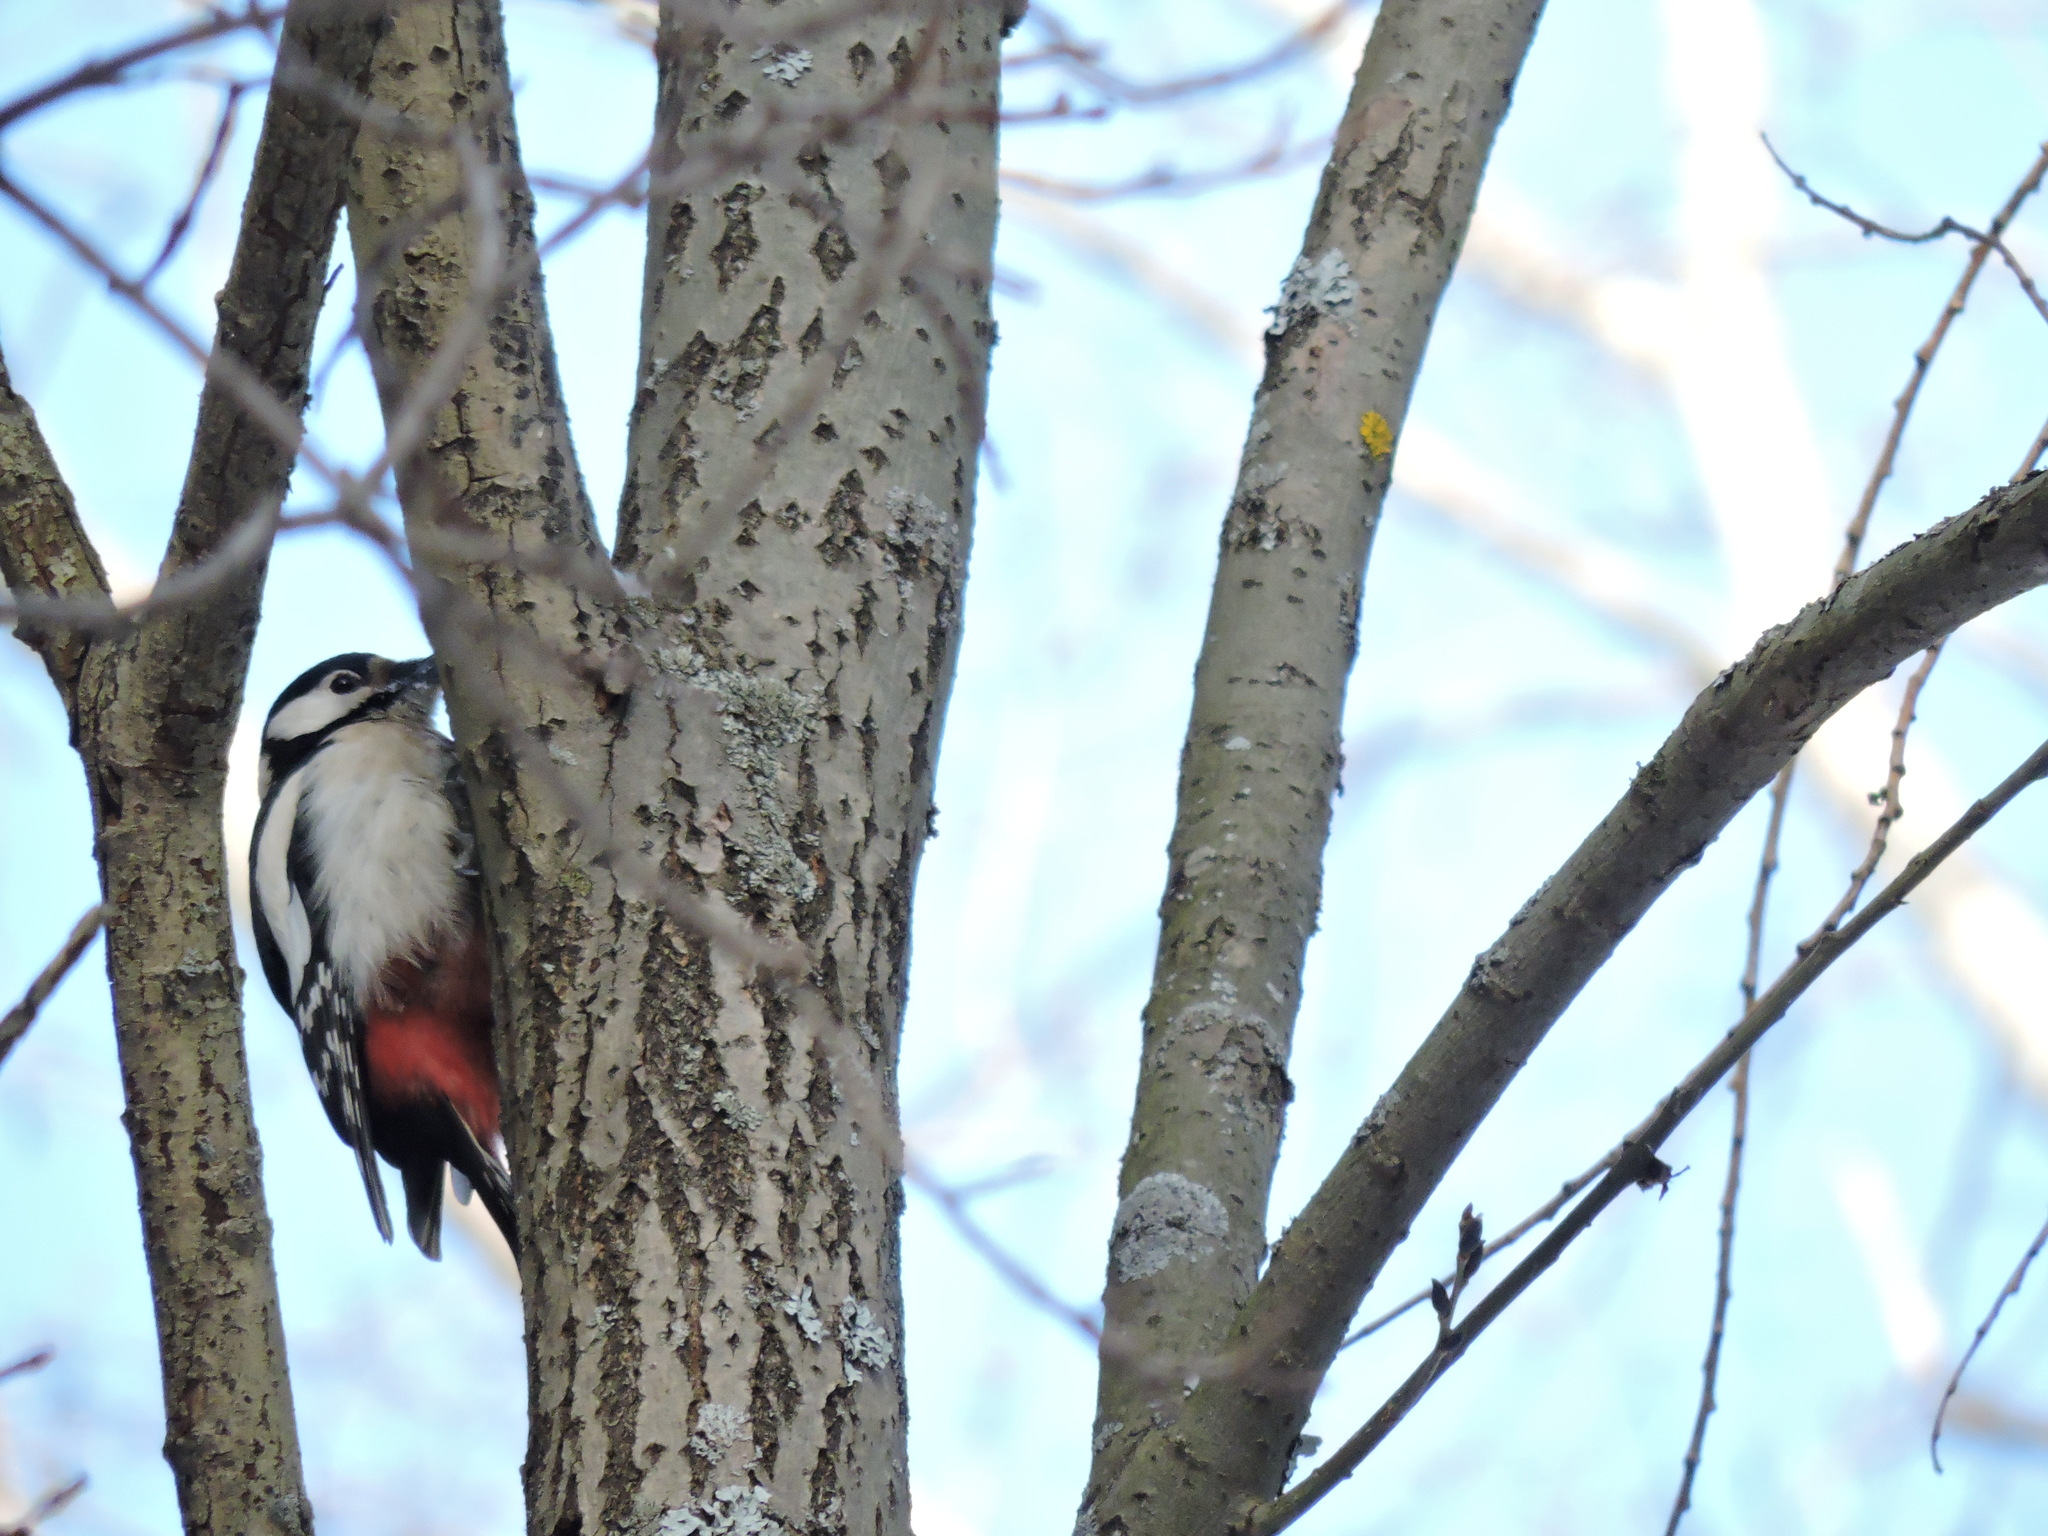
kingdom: Animalia
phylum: Chordata
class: Aves
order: Piciformes
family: Picidae
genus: Dendrocopos
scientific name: Dendrocopos major
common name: Great spotted woodpecker
